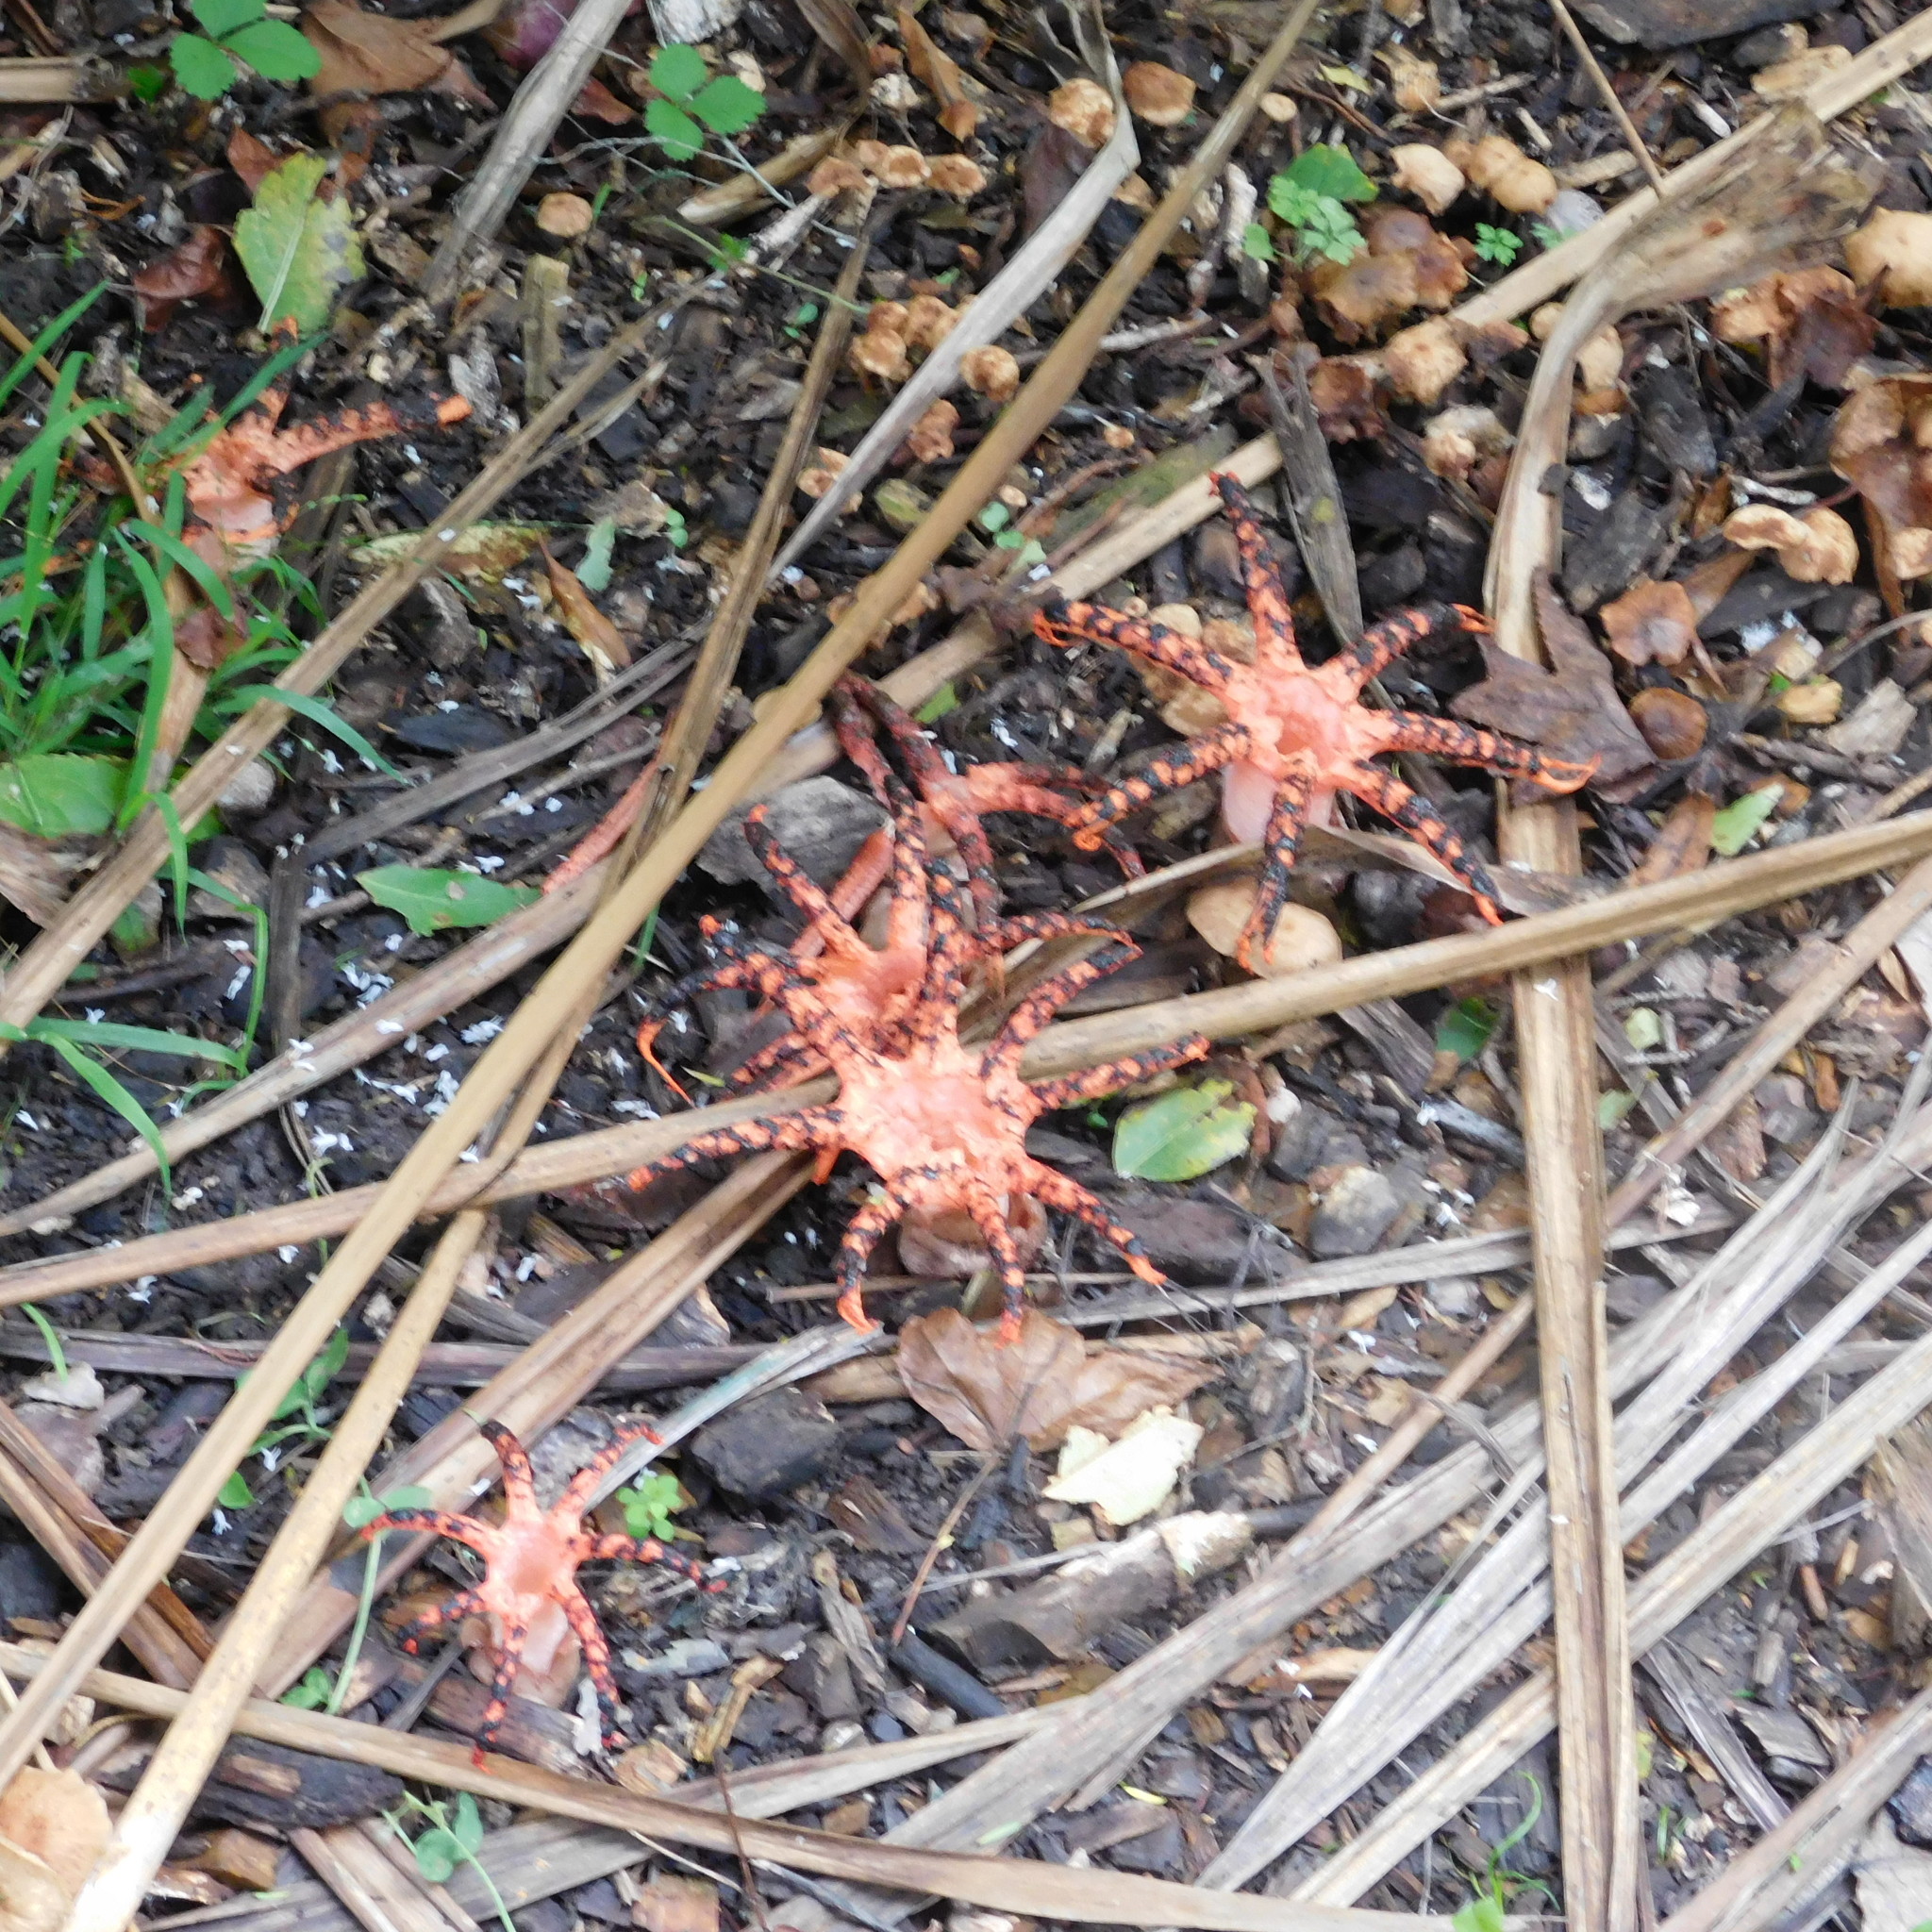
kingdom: Fungi
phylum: Basidiomycota
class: Agaricomycetes
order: Phallales
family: Phallaceae
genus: Clathrus
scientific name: Clathrus archeri
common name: Devil's fingers
